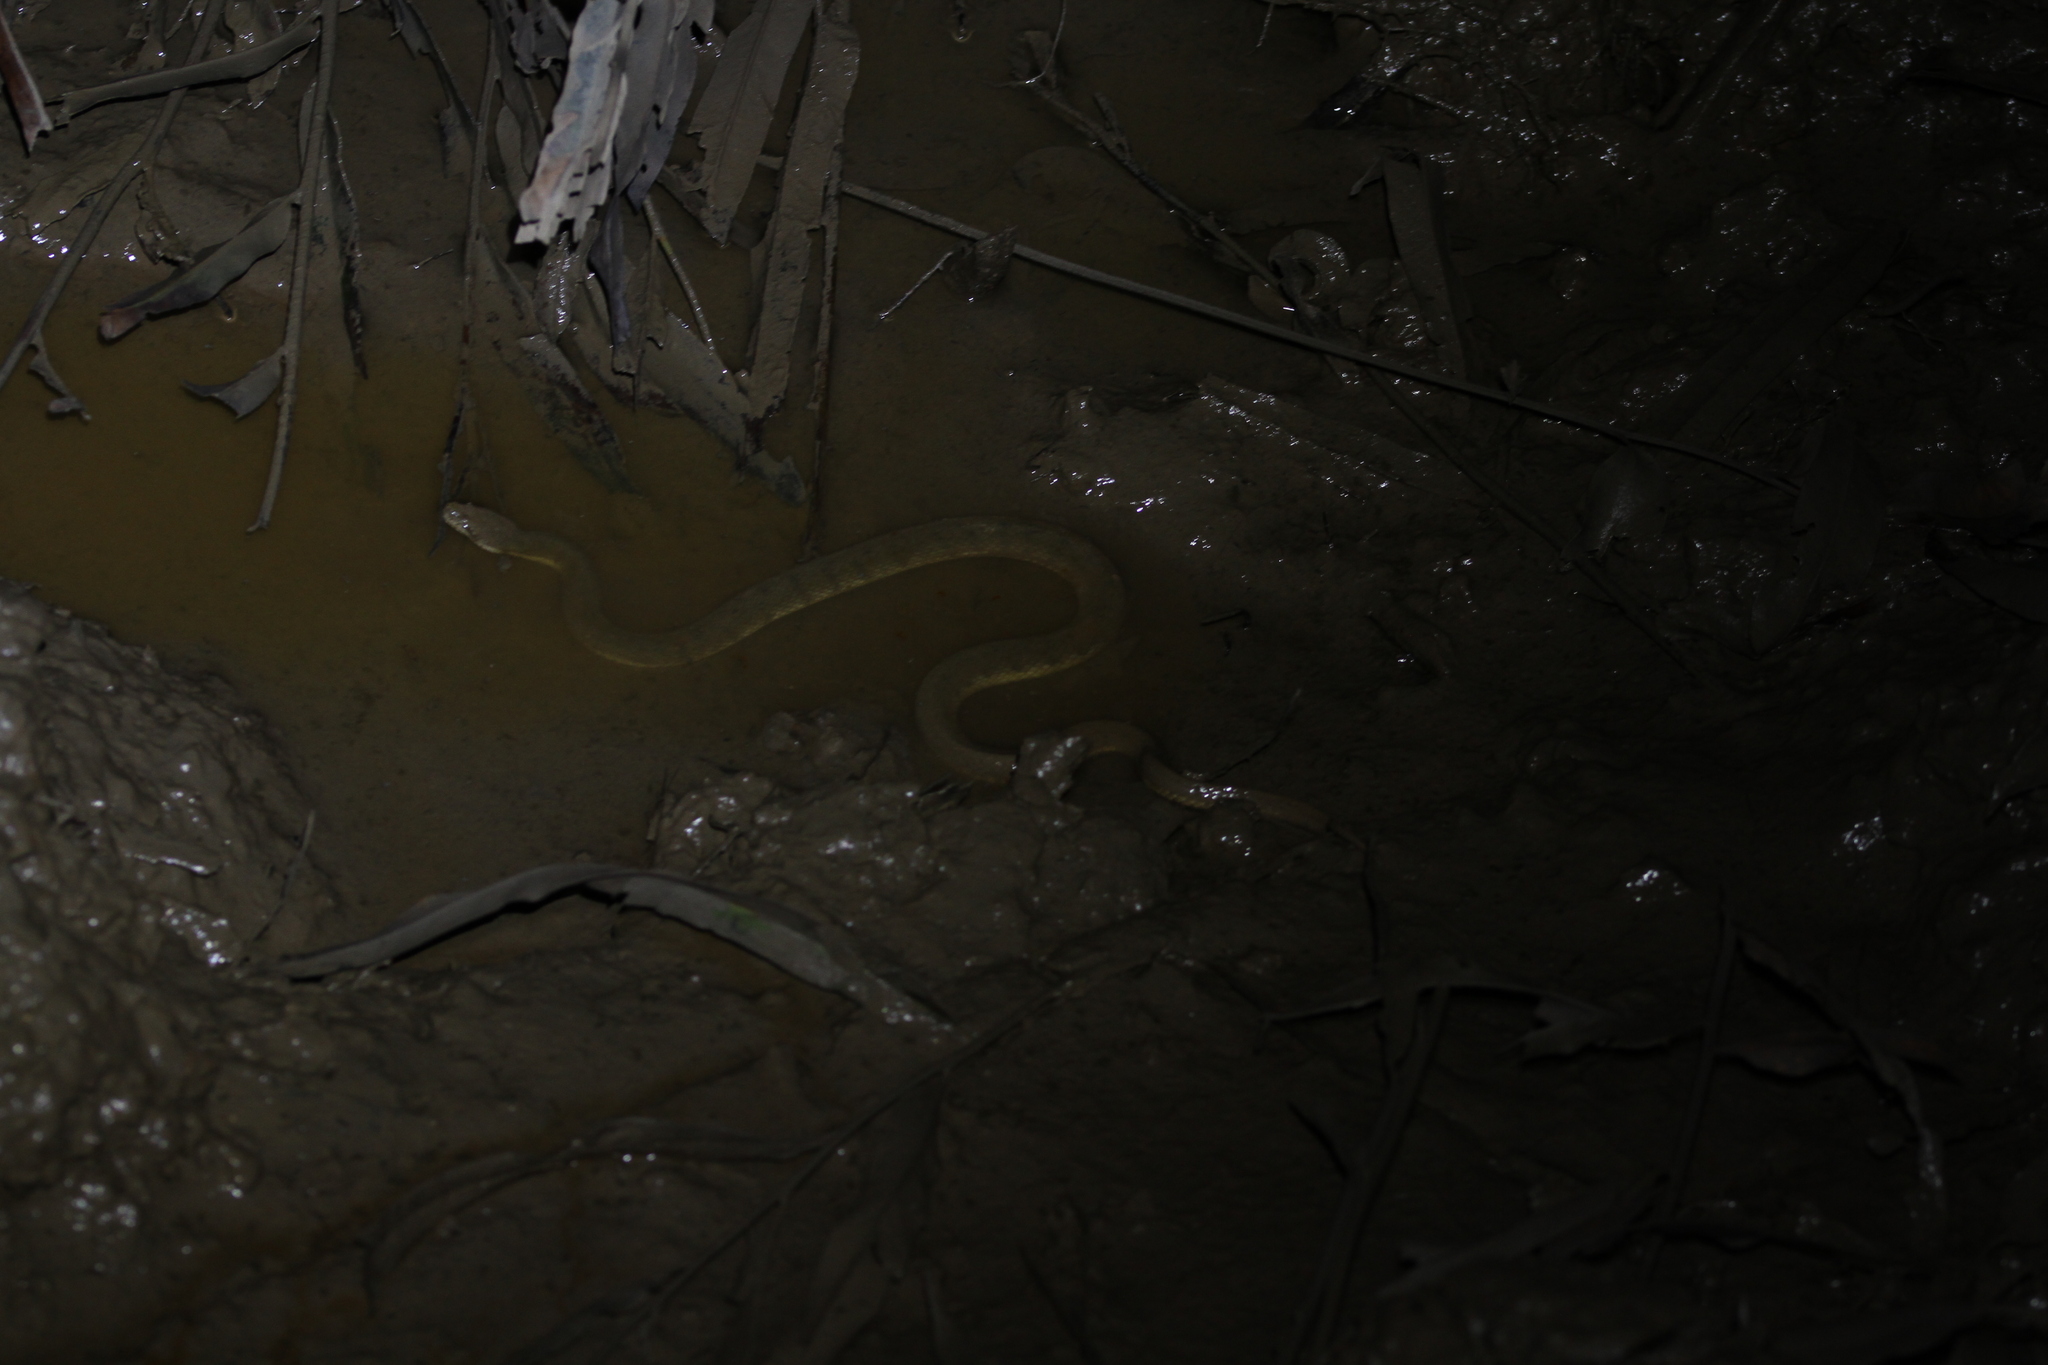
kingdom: Animalia
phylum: Chordata
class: Squamata
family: Homalopsidae
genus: Cerberus
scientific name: Cerberus schneiderii
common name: Southeast asian bockadam
